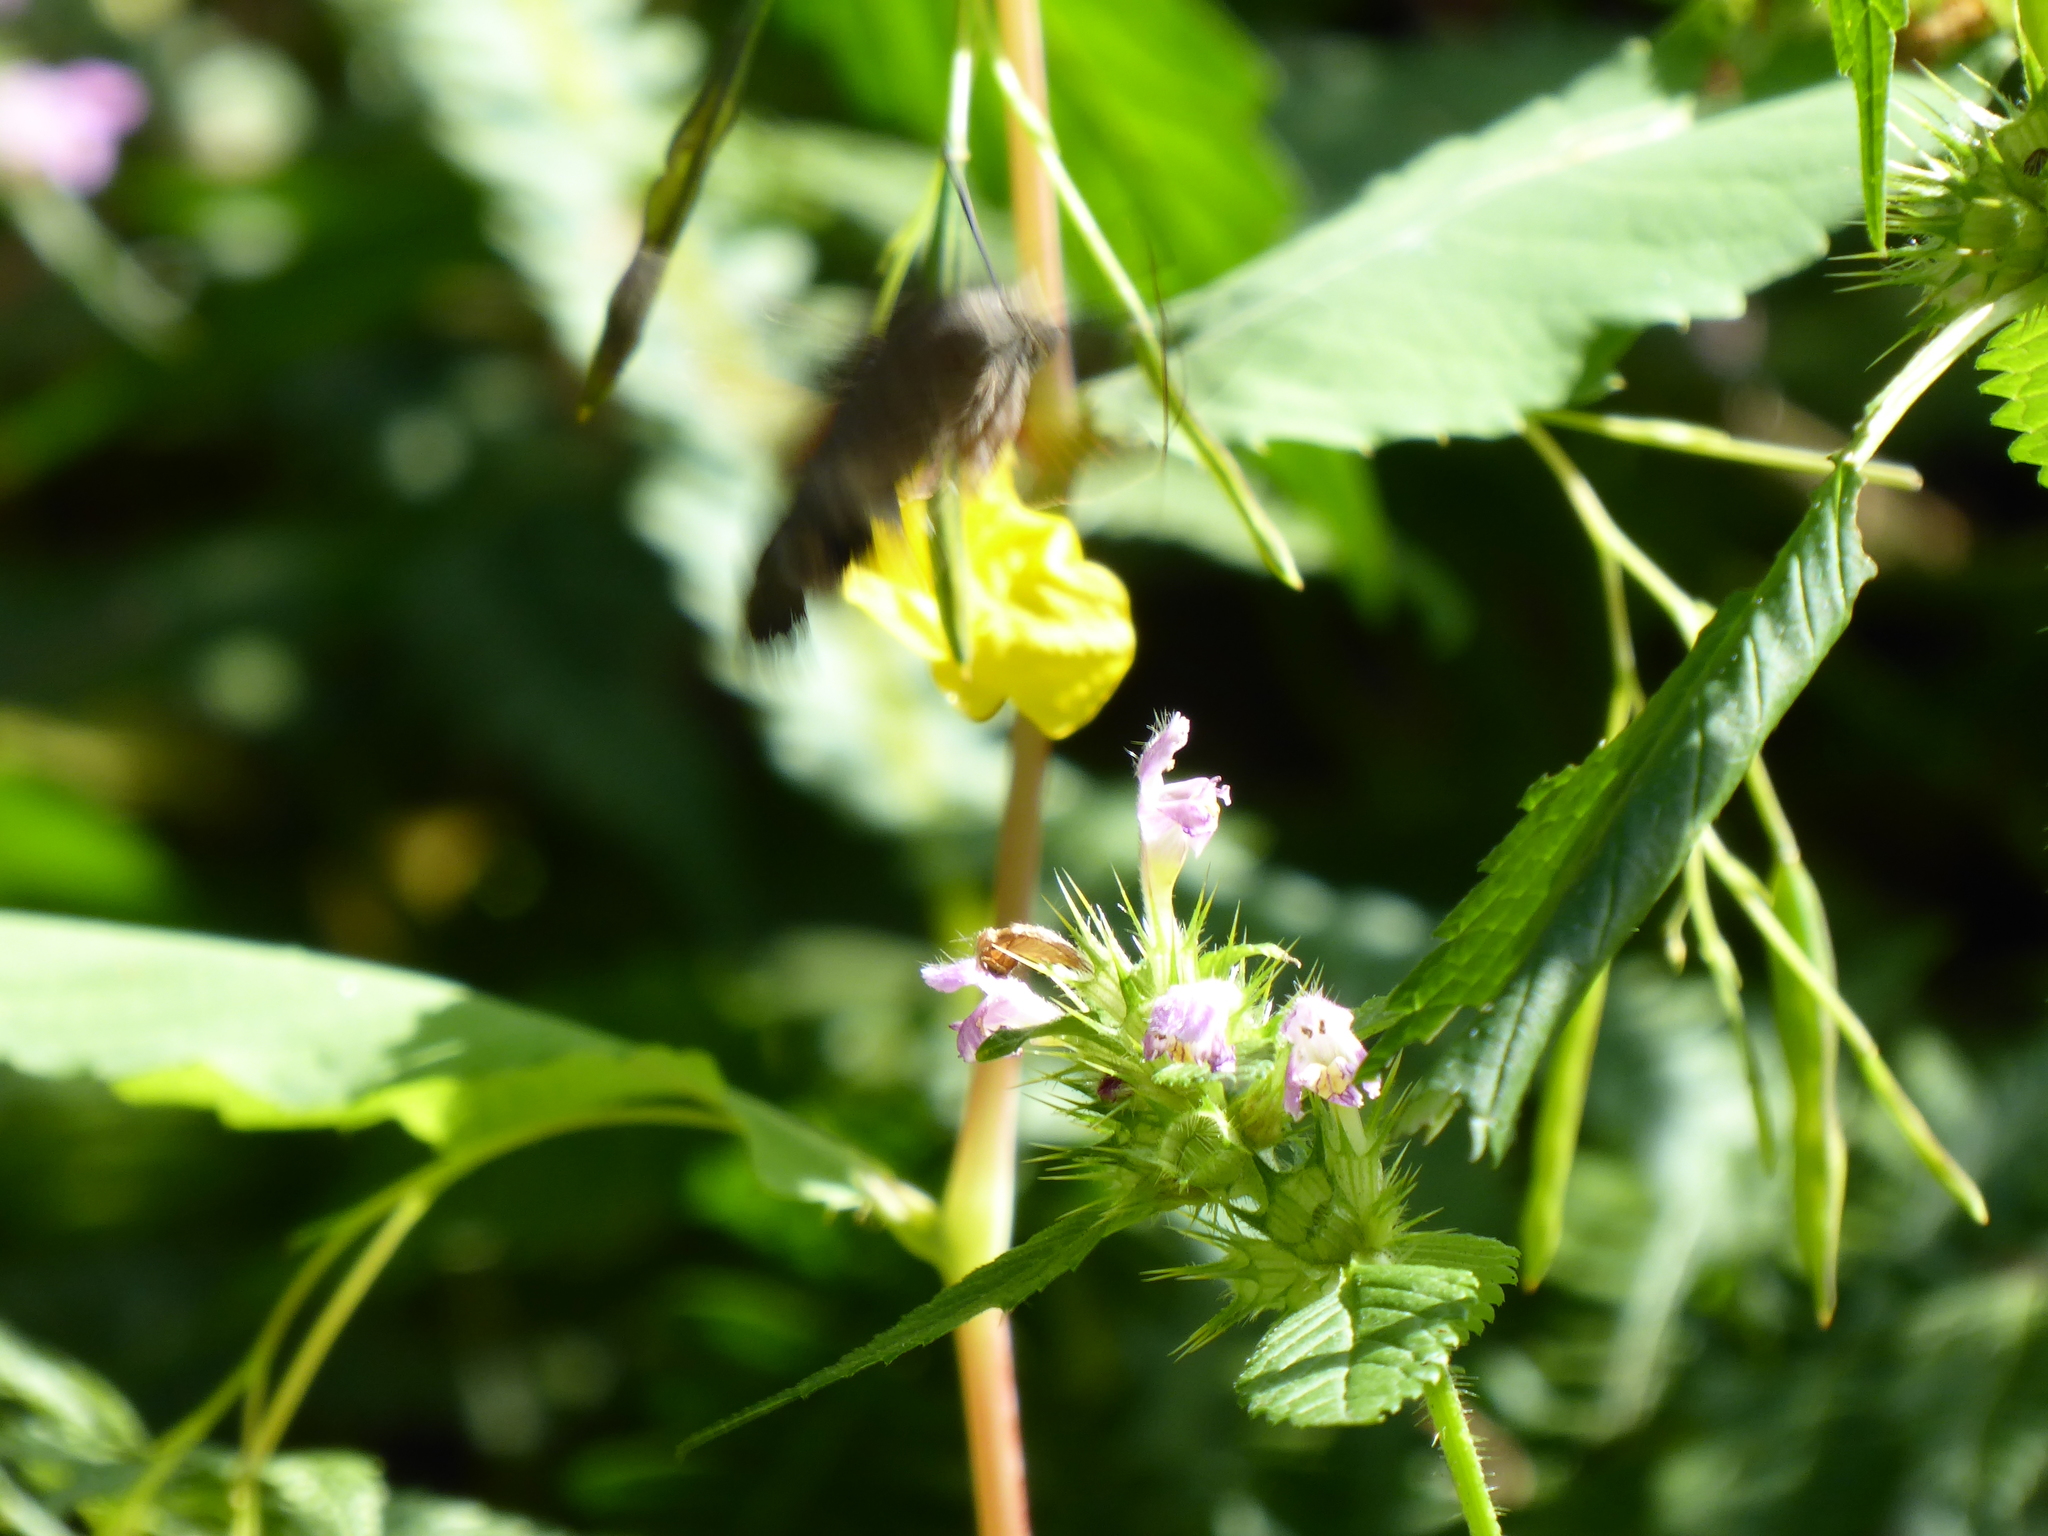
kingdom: Animalia
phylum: Arthropoda
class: Insecta
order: Lepidoptera
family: Sphingidae
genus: Macroglossum
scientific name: Macroglossum stellatarum
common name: Humming-bird hawk-moth
